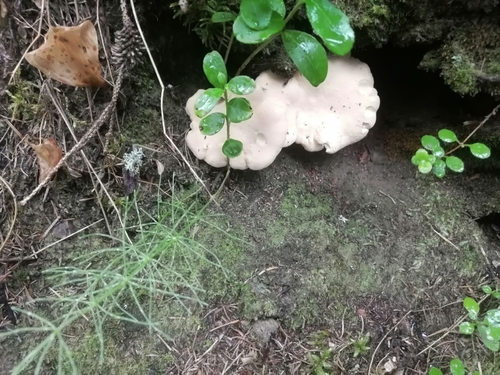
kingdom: Fungi
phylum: Basidiomycota
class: Agaricomycetes
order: Cantharellales
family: Hydnaceae
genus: Hydnum
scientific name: Hydnum repandum
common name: Wood hedgehog
